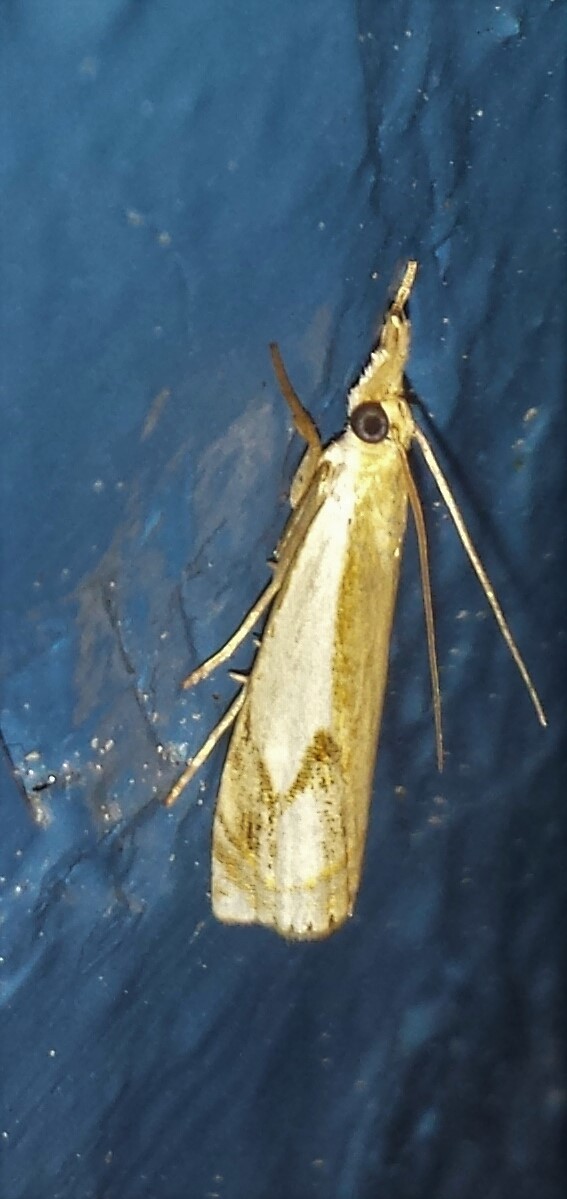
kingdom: Animalia
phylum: Arthropoda
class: Insecta
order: Lepidoptera
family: Crambidae
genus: Crambus
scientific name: Crambus agitatellus
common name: Double-banded grass-veneer
